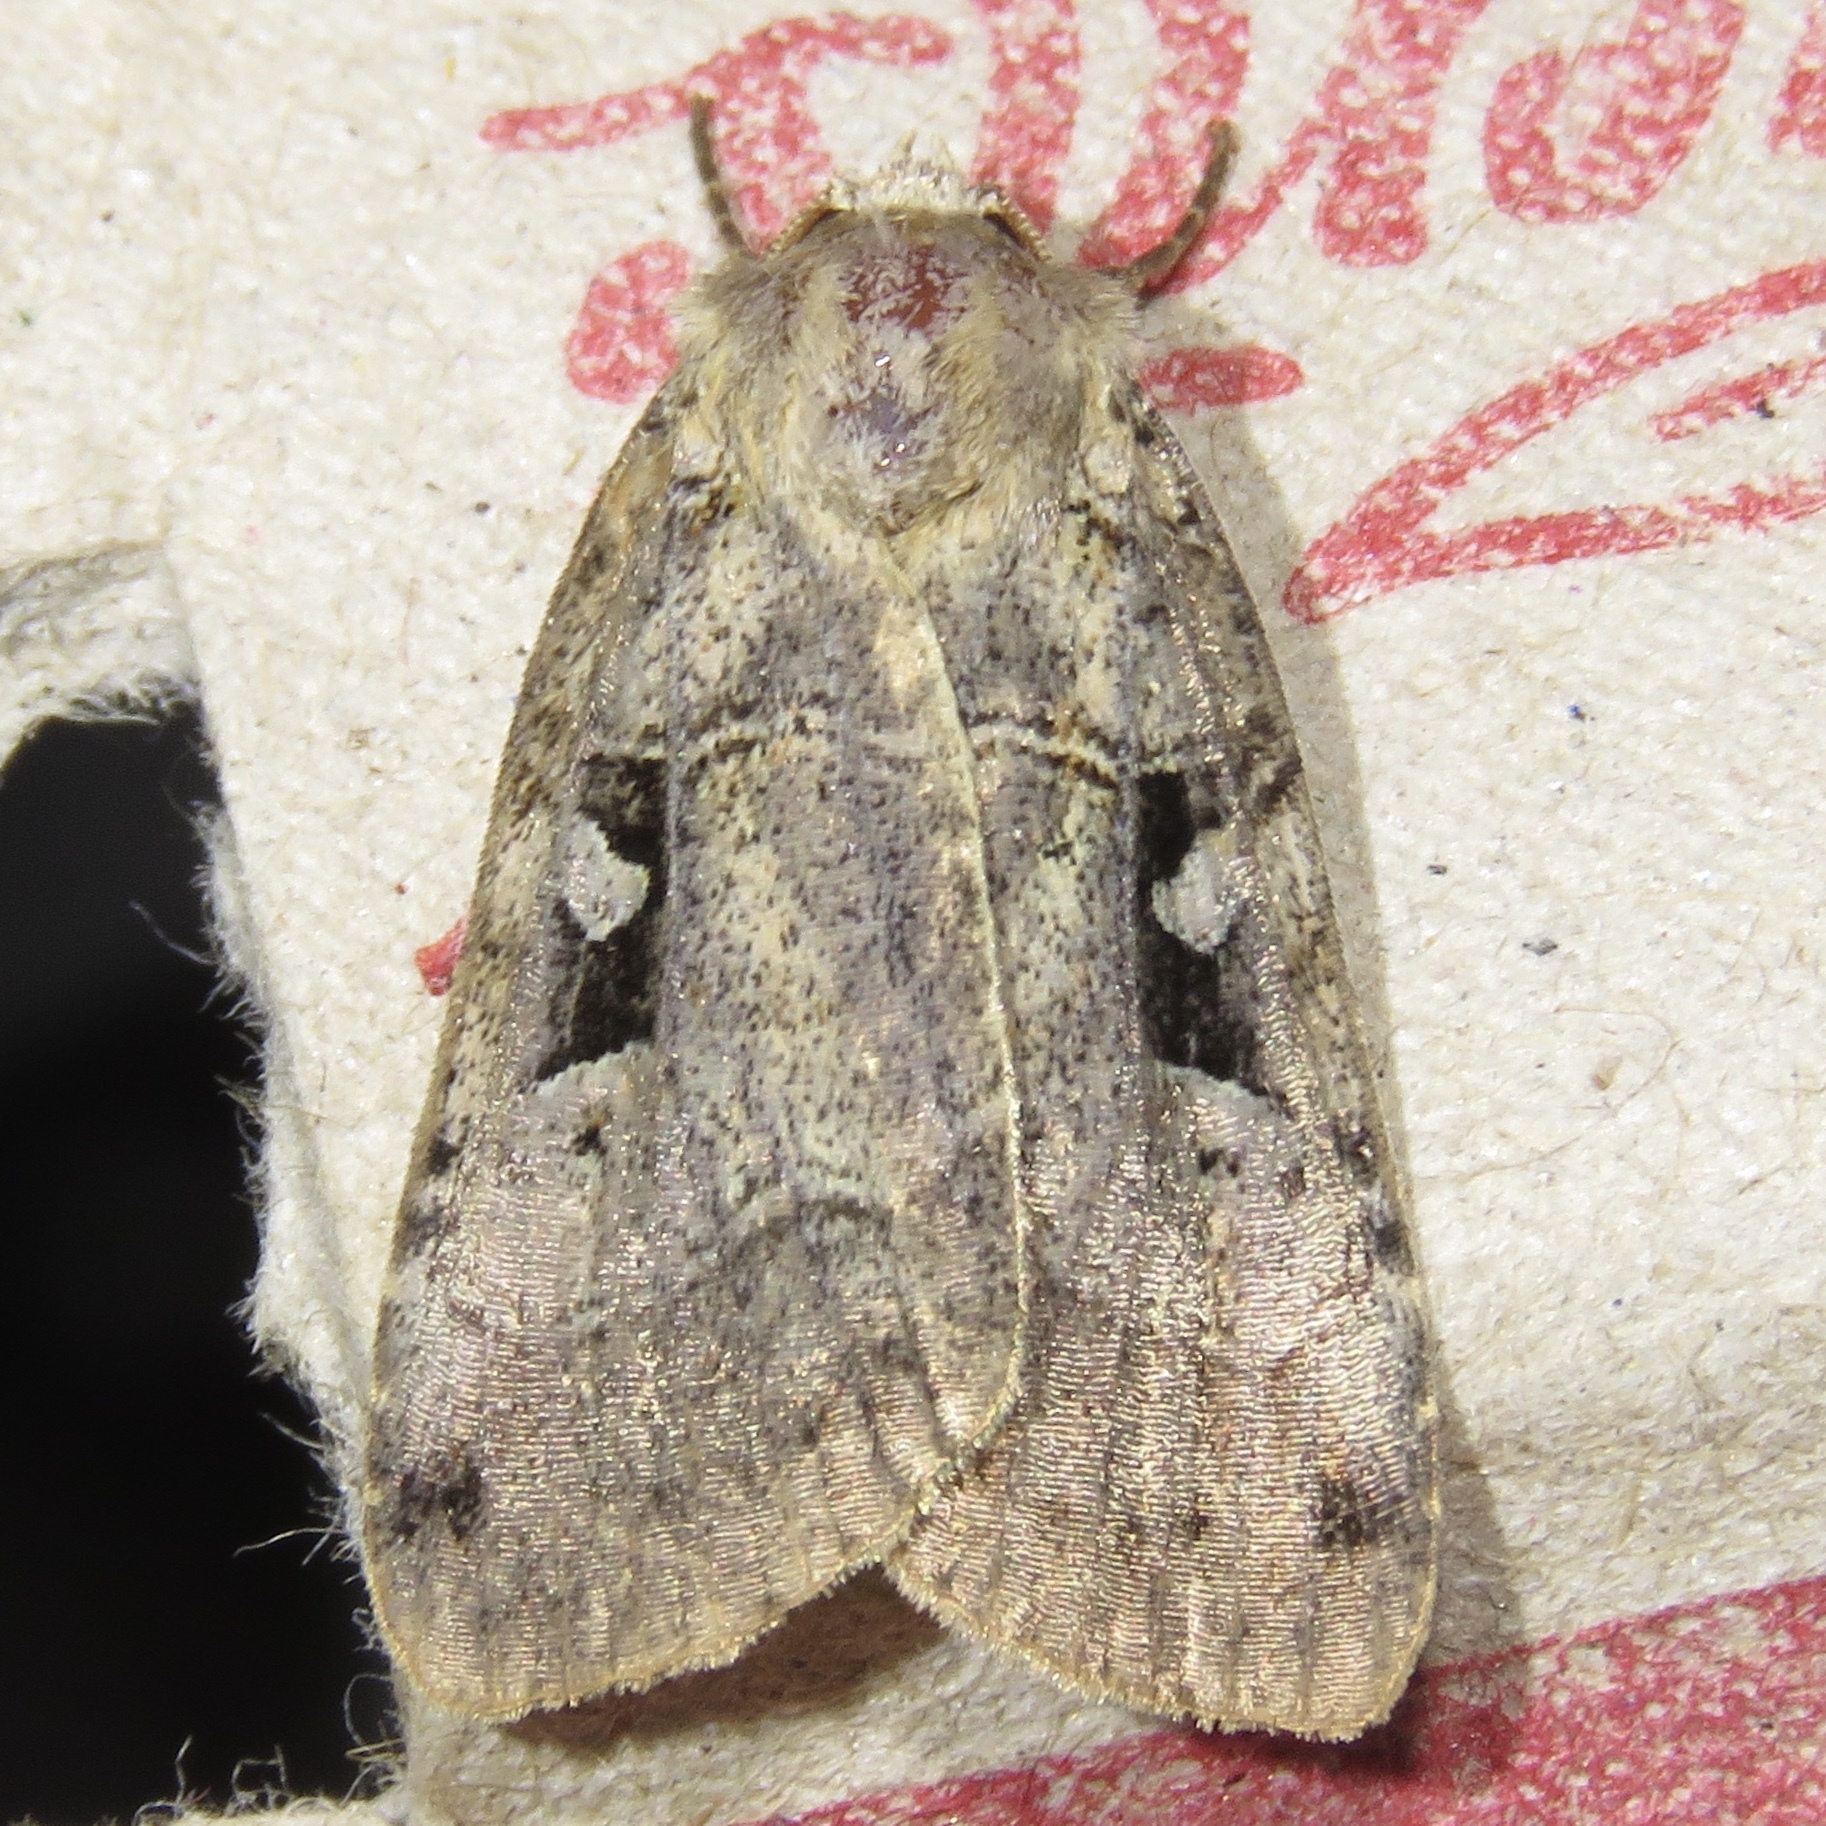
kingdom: Animalia
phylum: Arthropoda
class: Insecta
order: Lepidoptera
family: Noctuidae
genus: Xestia
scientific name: Xestia normaniana
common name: Norman's dart moth
